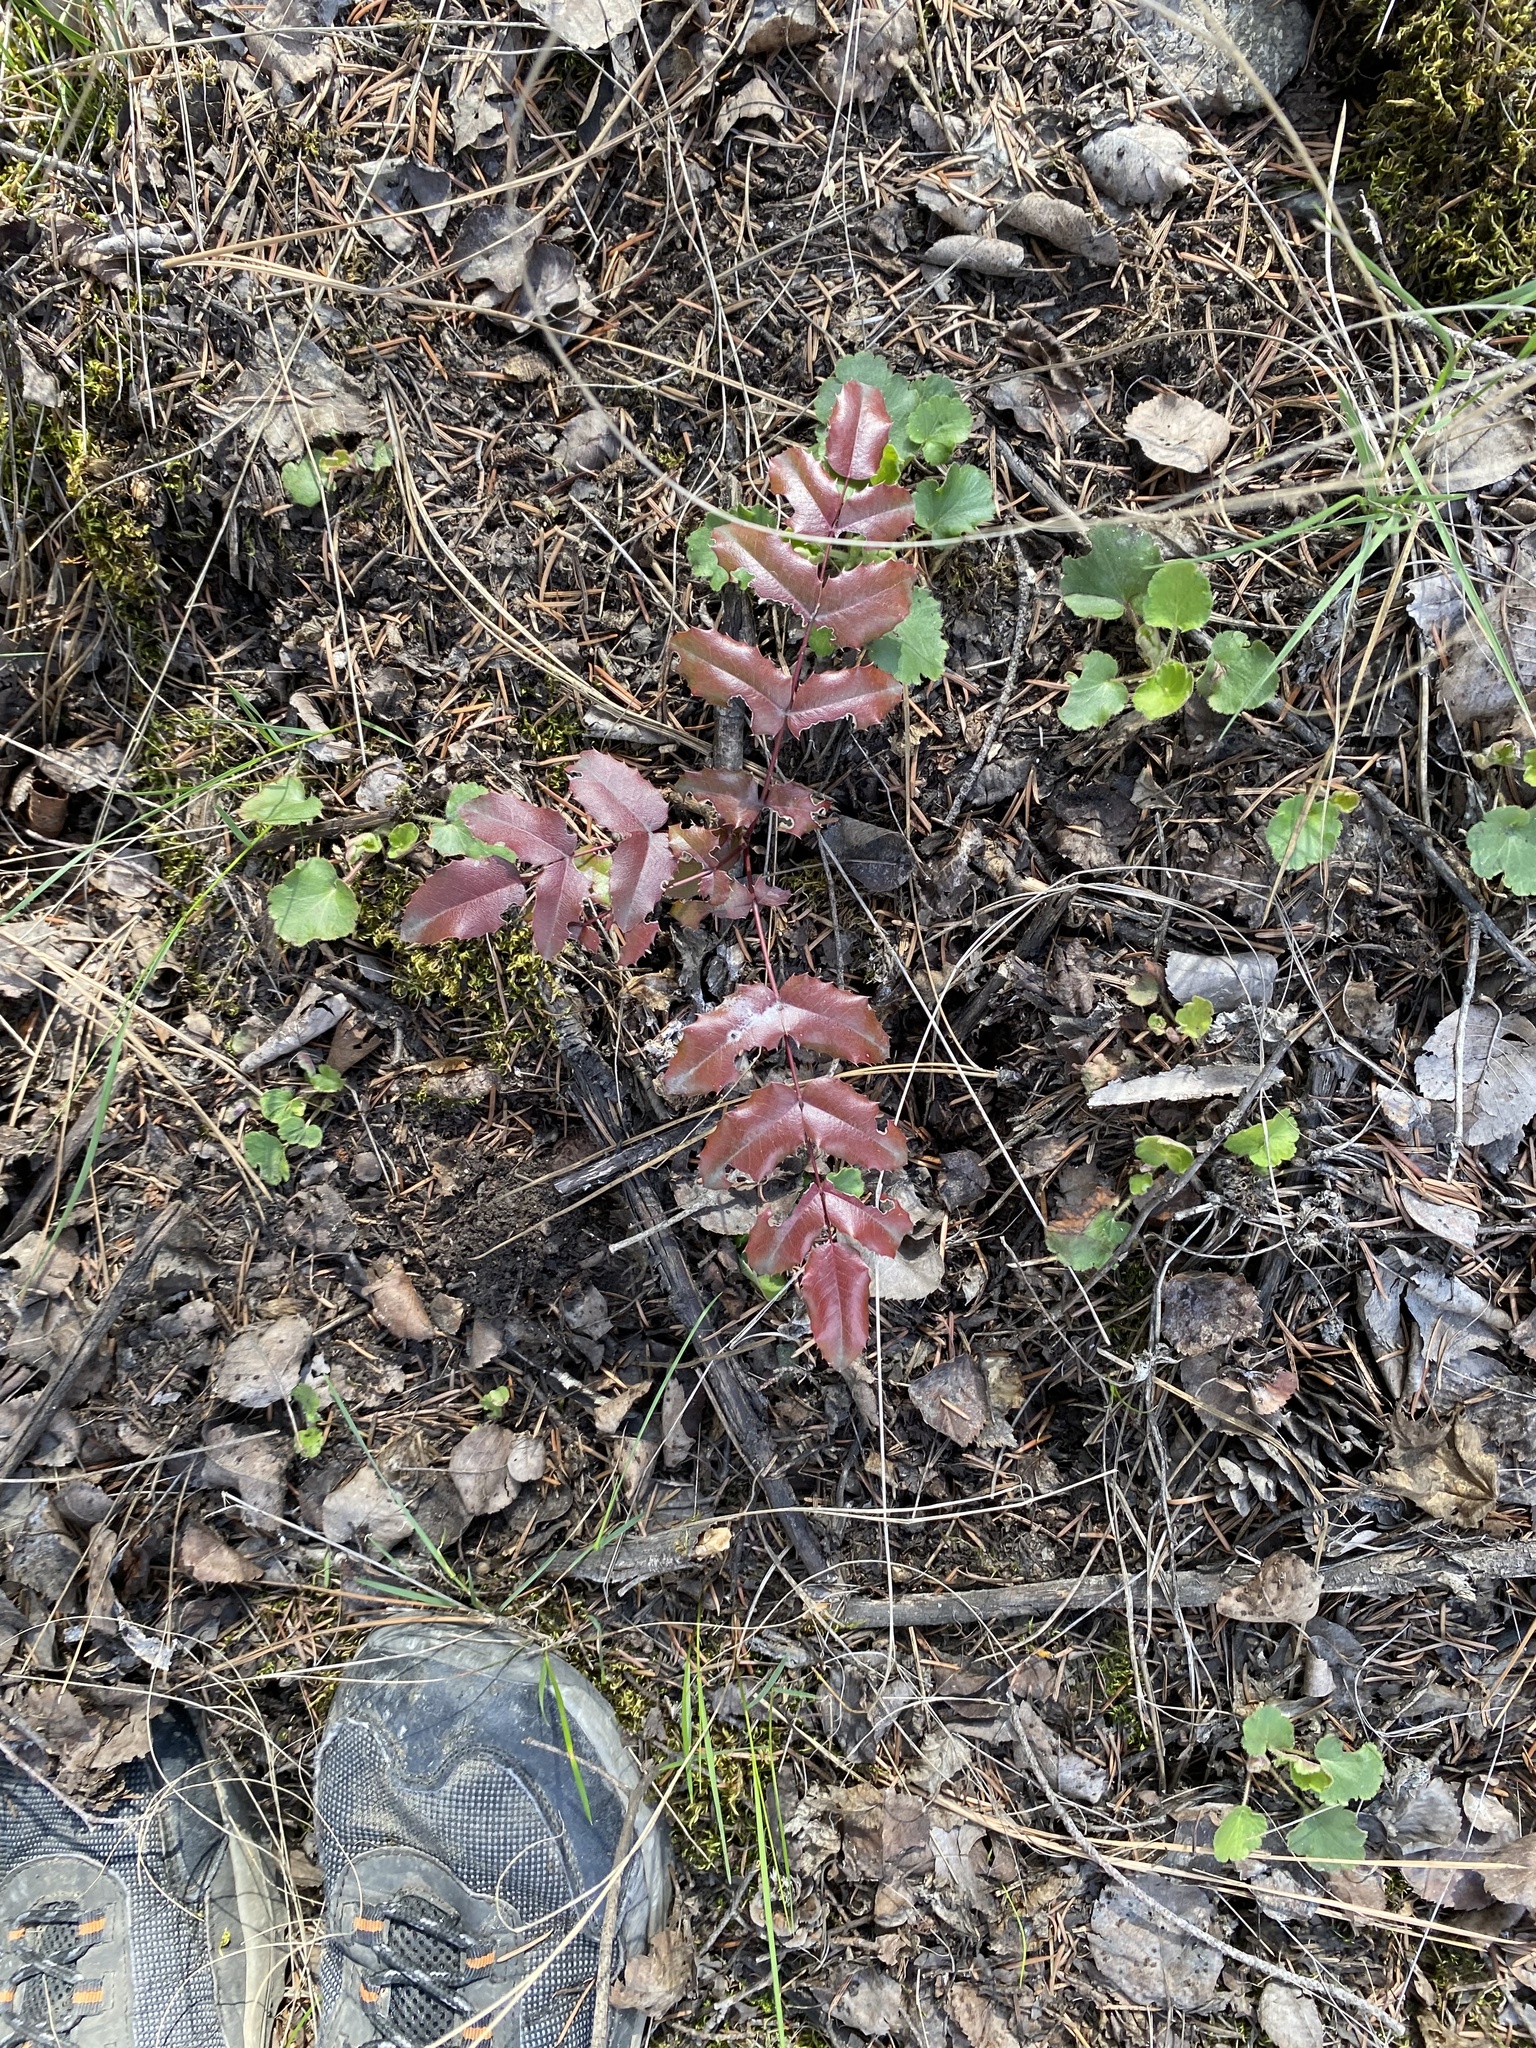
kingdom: Plantae
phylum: Tracheophyta
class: Magnoliopsida
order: Ranunculales
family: Berberidaceae
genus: Mahonia
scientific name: Mahonia aquifolium
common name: Oregon-grape
